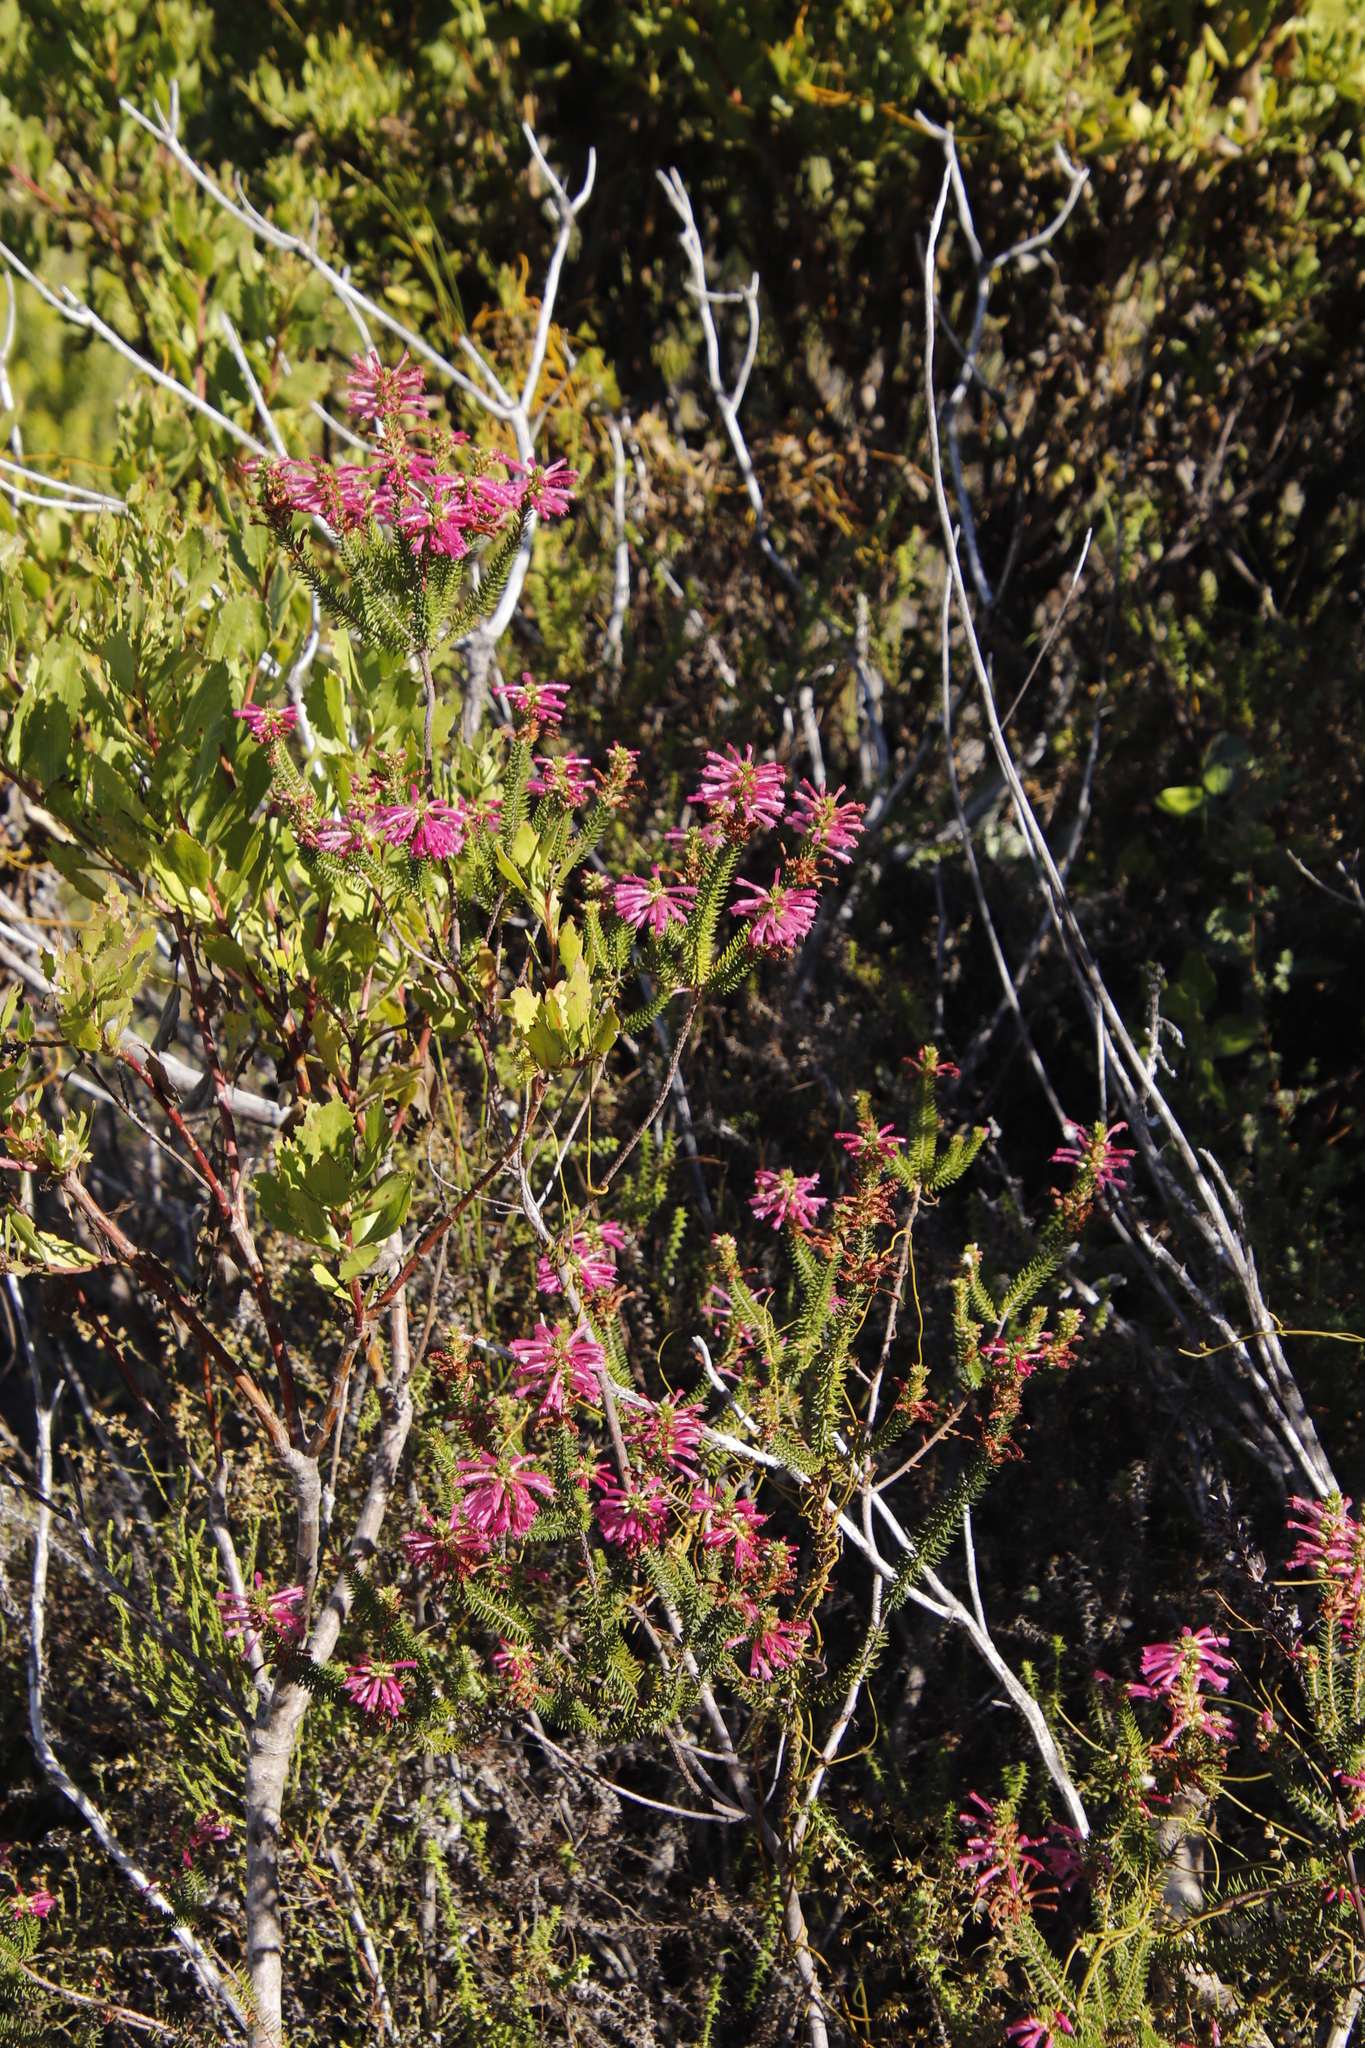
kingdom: Plantae
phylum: Tracheophyta
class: Magnoliopsida
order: Ericales
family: Ericaceae
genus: Erica
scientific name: Erica abietina
